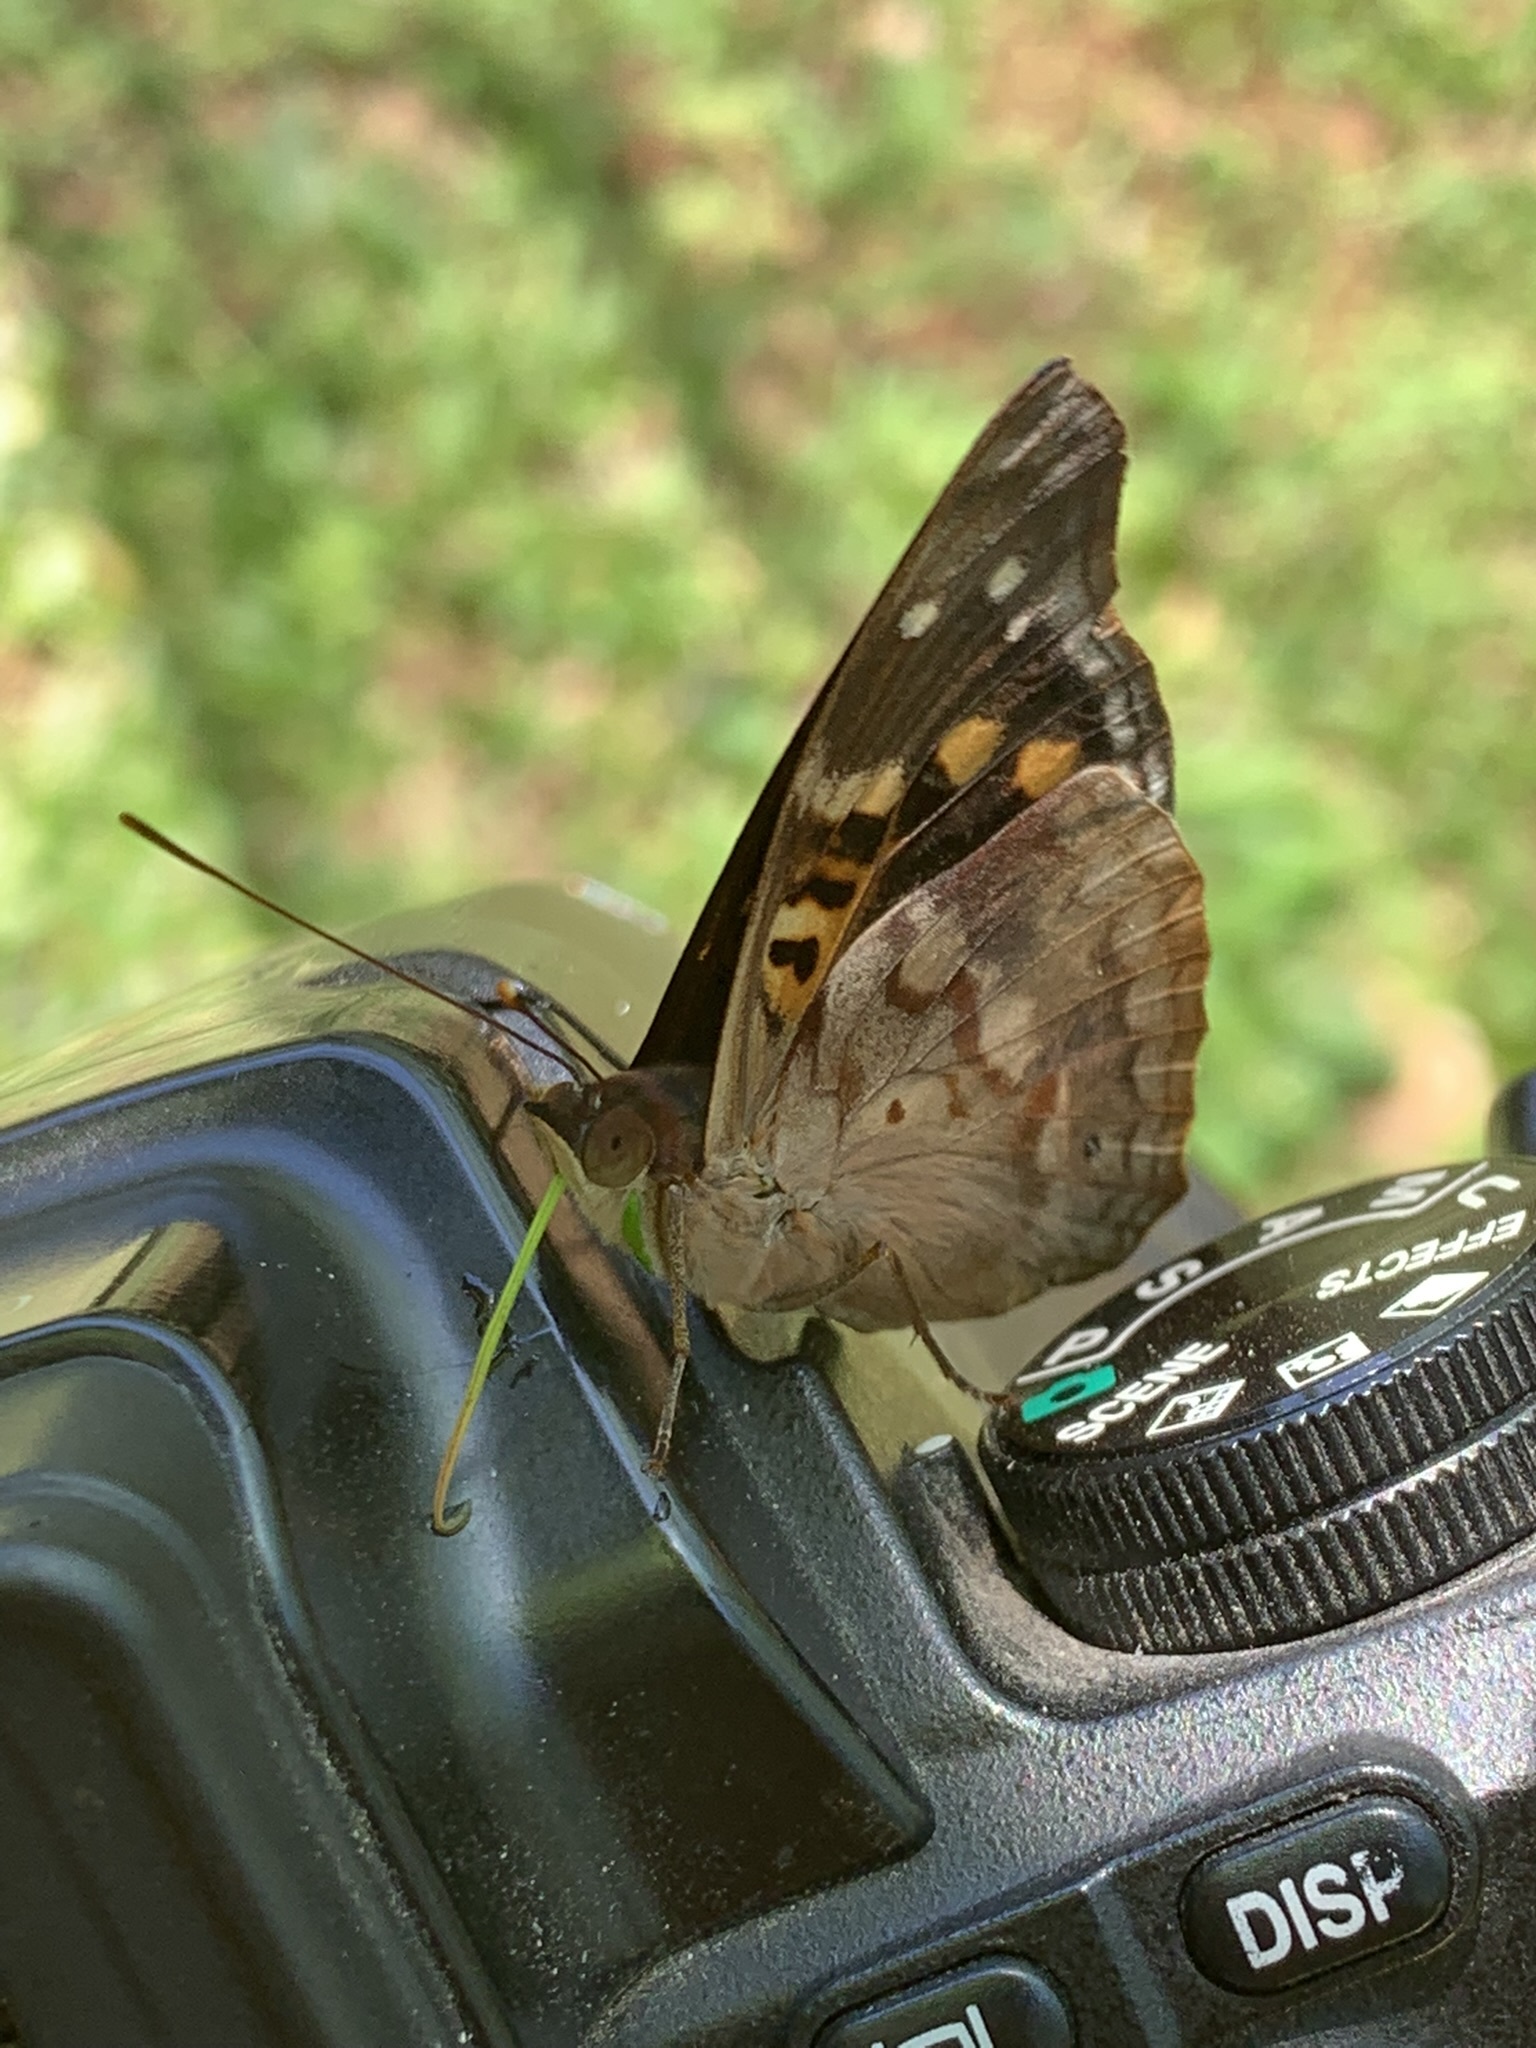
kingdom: Animalia
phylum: Arthropoda
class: Insecta
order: Lepidoptera
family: Nymphalidae
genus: Doxocopa
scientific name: Doxocopa agathina
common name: Agathina emperor
